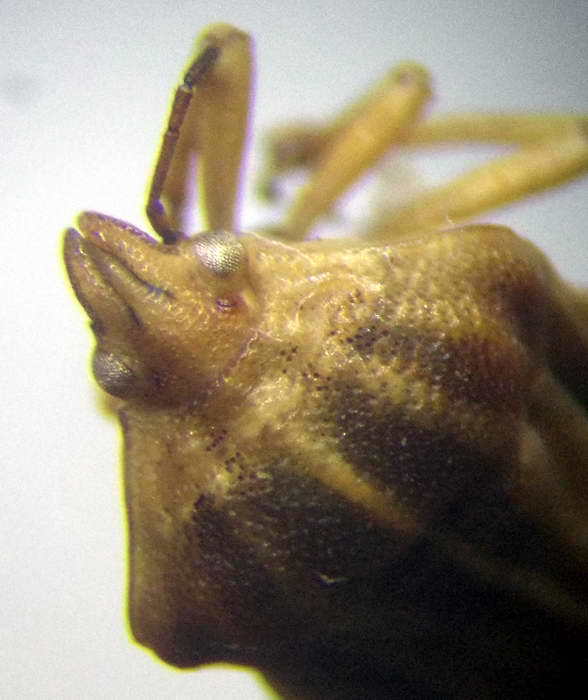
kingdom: Animalia
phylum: Arthropoda
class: Insecta
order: Hemiptera
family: Pentatomidae
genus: Tholagmus
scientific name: Tholagmus flavolineatus
